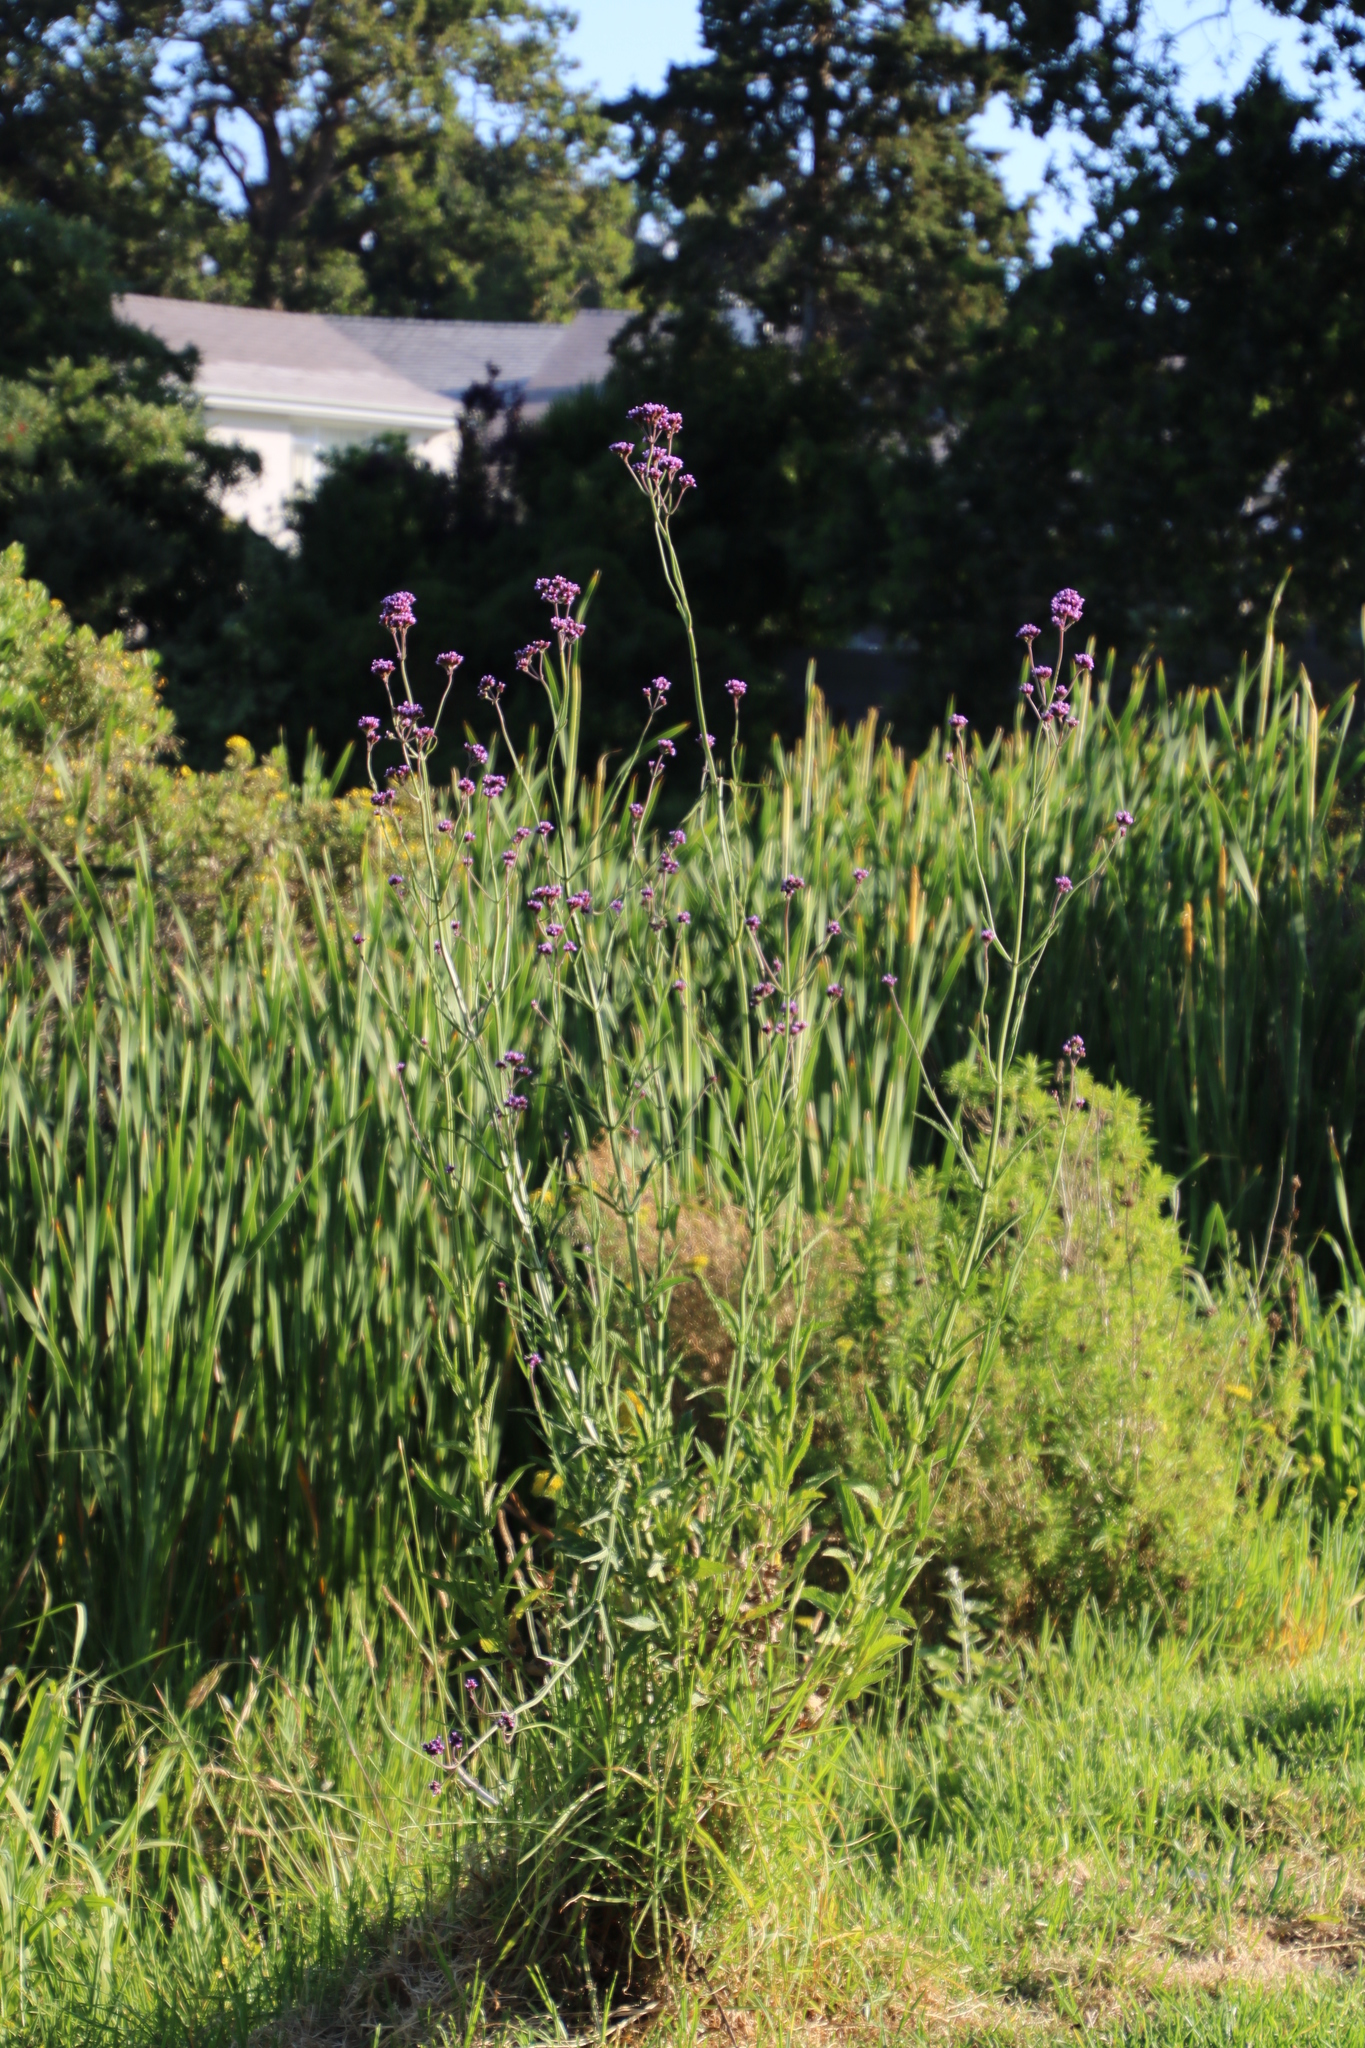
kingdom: Plantae
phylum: Tracheophyta
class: Magnoliopsida
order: Lamiales
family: Verbenaceae
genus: Verbena
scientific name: Verbena bonariensis
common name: Purpletop vervain
